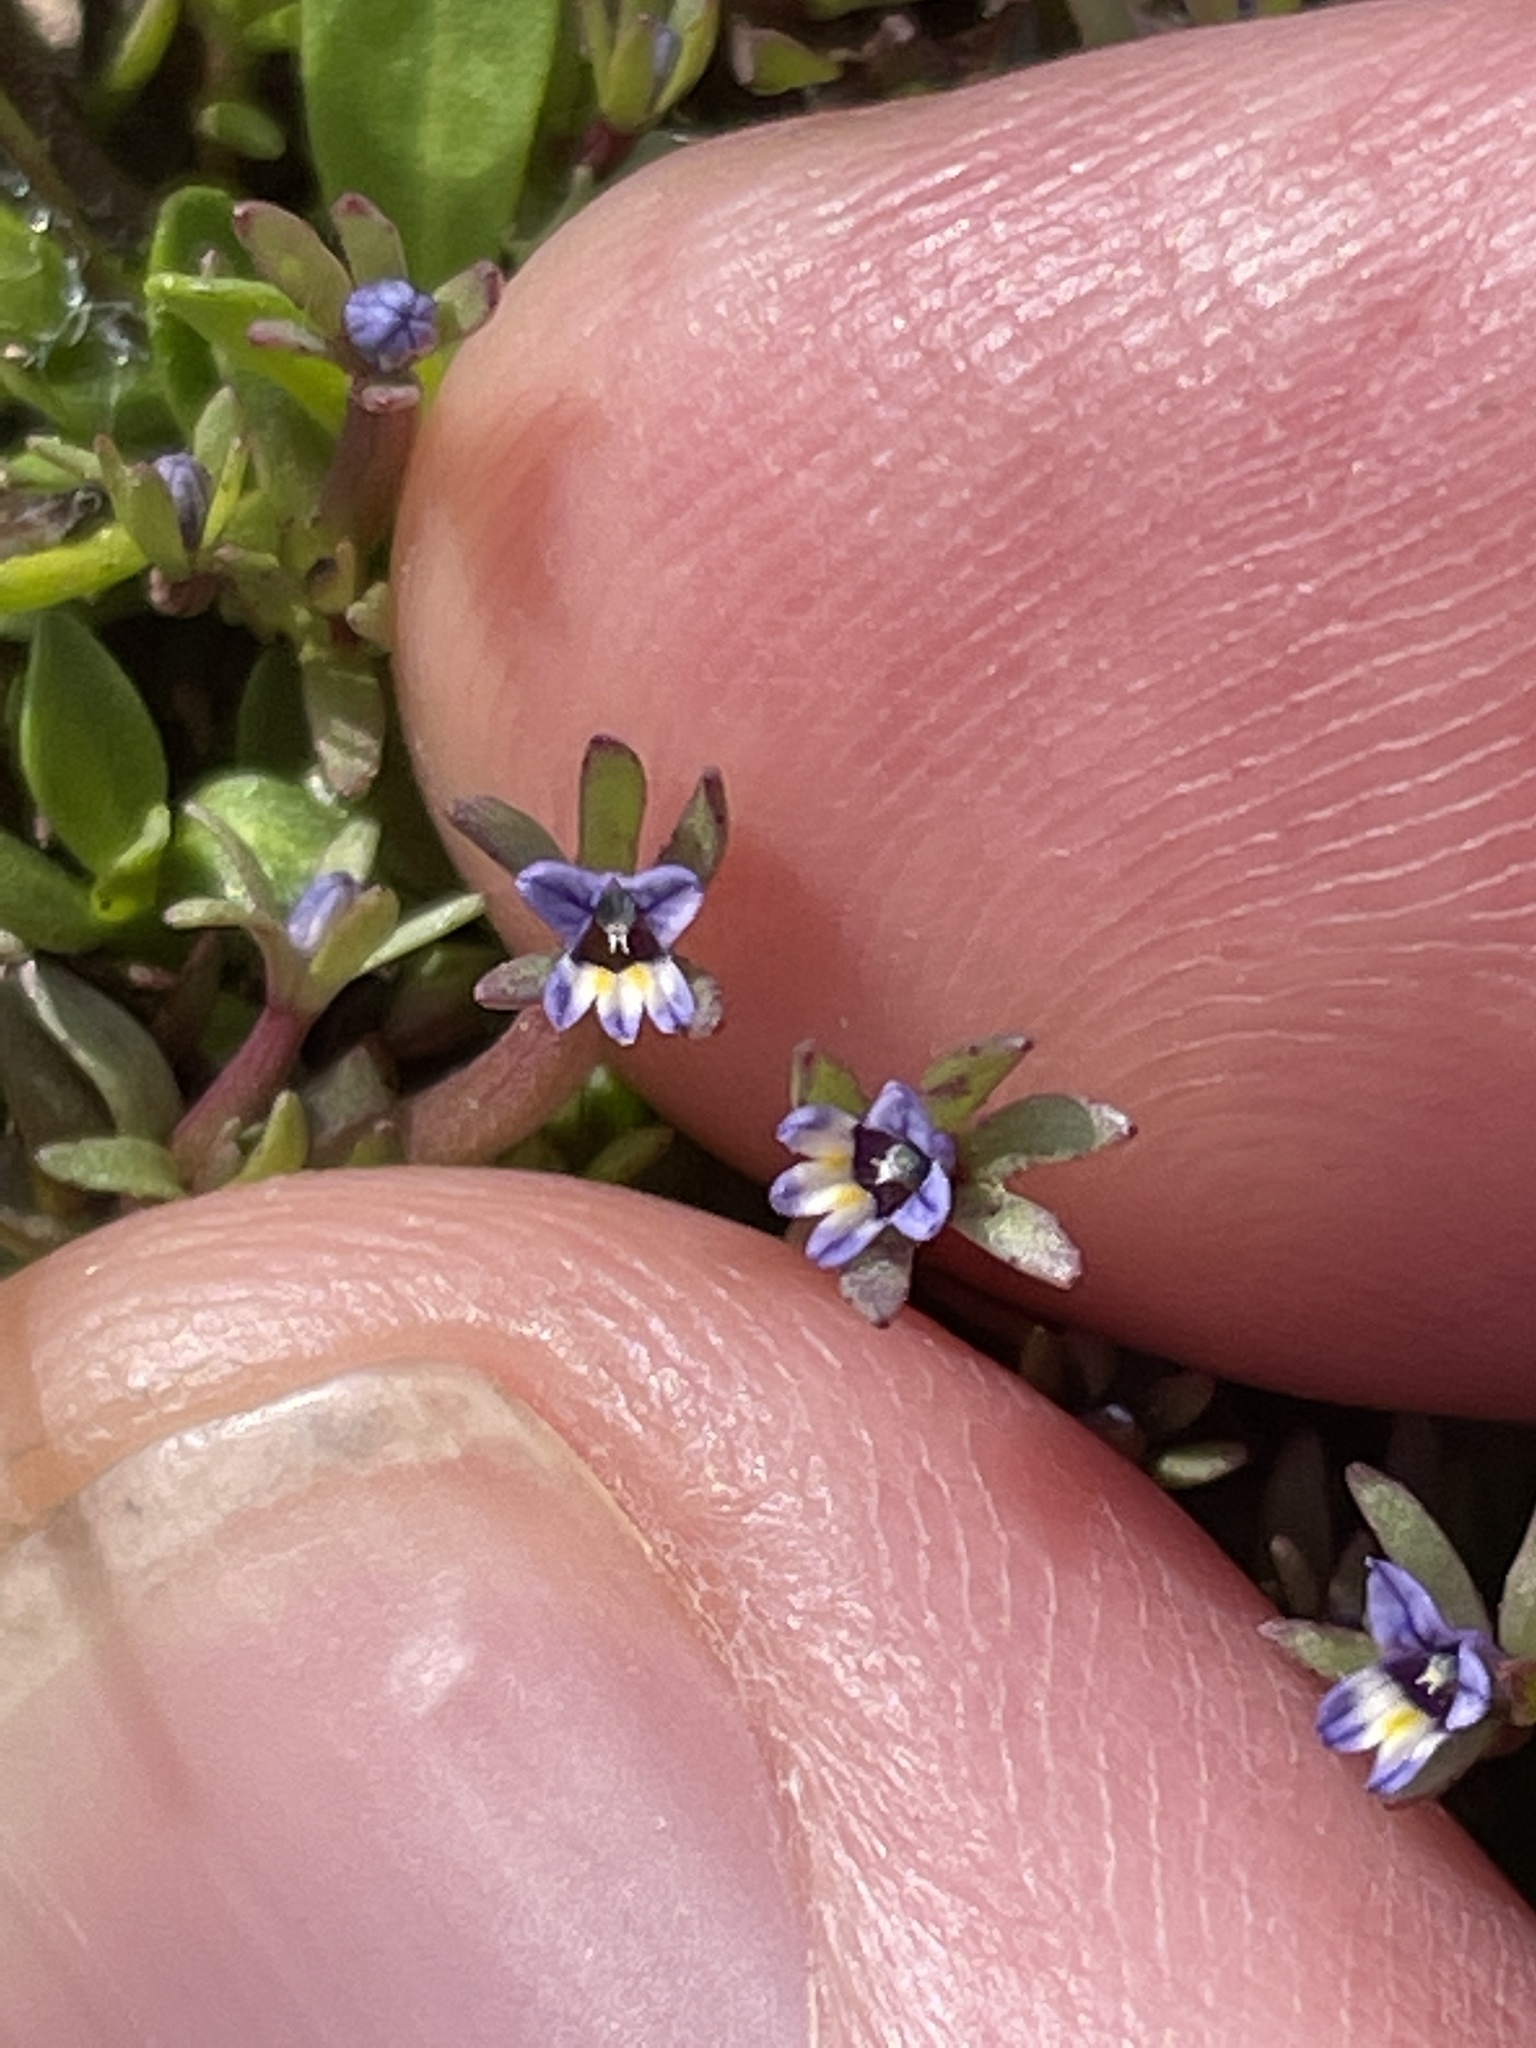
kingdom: Plantae
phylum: Tracheophyta
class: Magnoliopsida
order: Asterales
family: Campanulaceae
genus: Downingia
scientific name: Downingia pusilla
